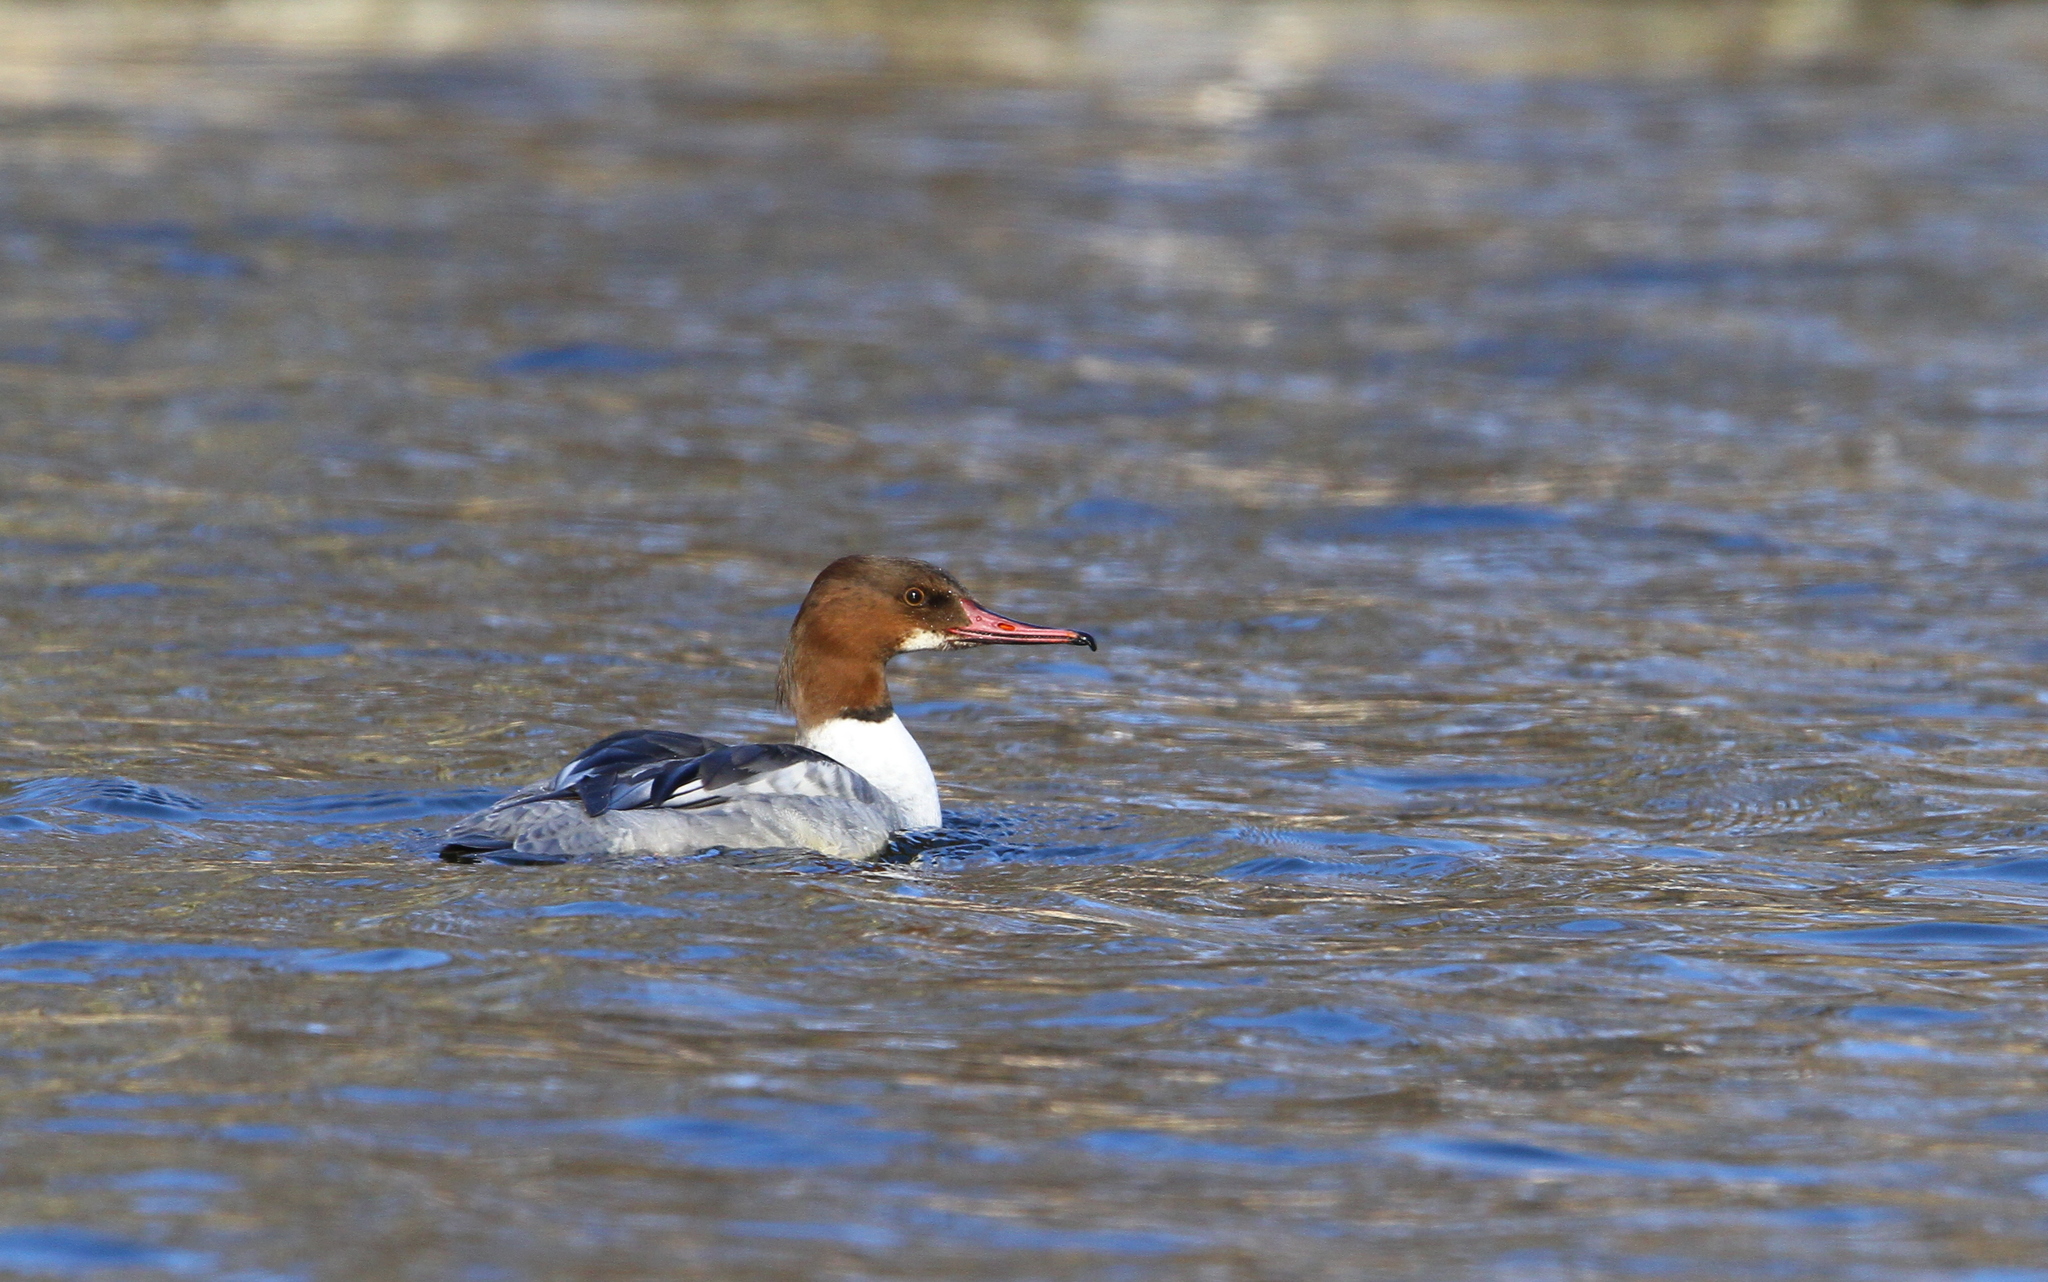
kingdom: Animalia
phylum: Chordata
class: Aves
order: Anseriformes
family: Anatidae
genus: Mergus
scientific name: Mergus merganser
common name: Common merganser
